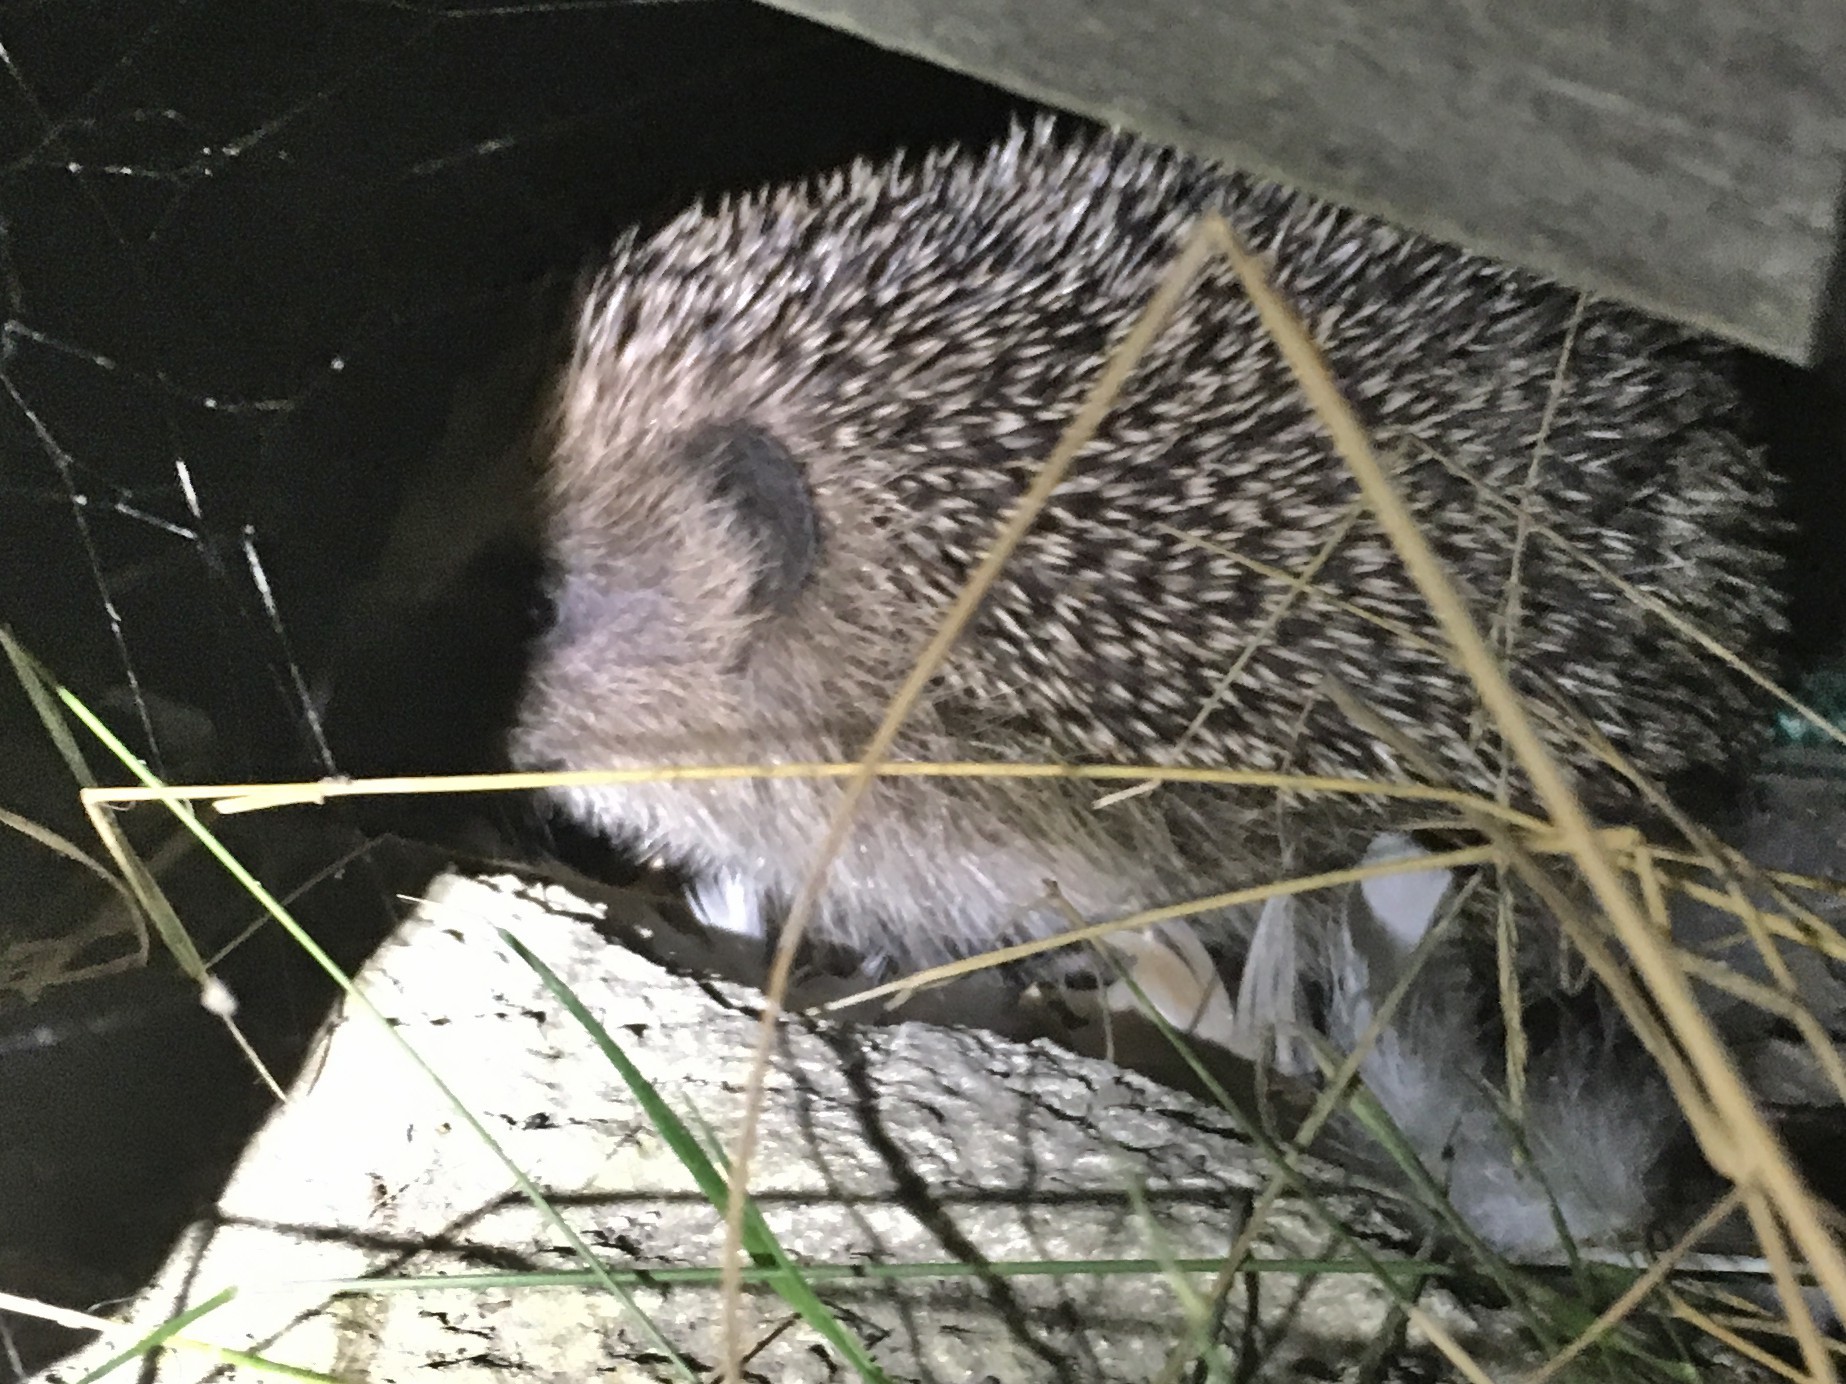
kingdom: Animalia
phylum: Chordata
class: Mammalia
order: Erinaceomorpha
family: Erinaceidae
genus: Erinaceus
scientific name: Erinaceus europaeus
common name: West european hedgehog
